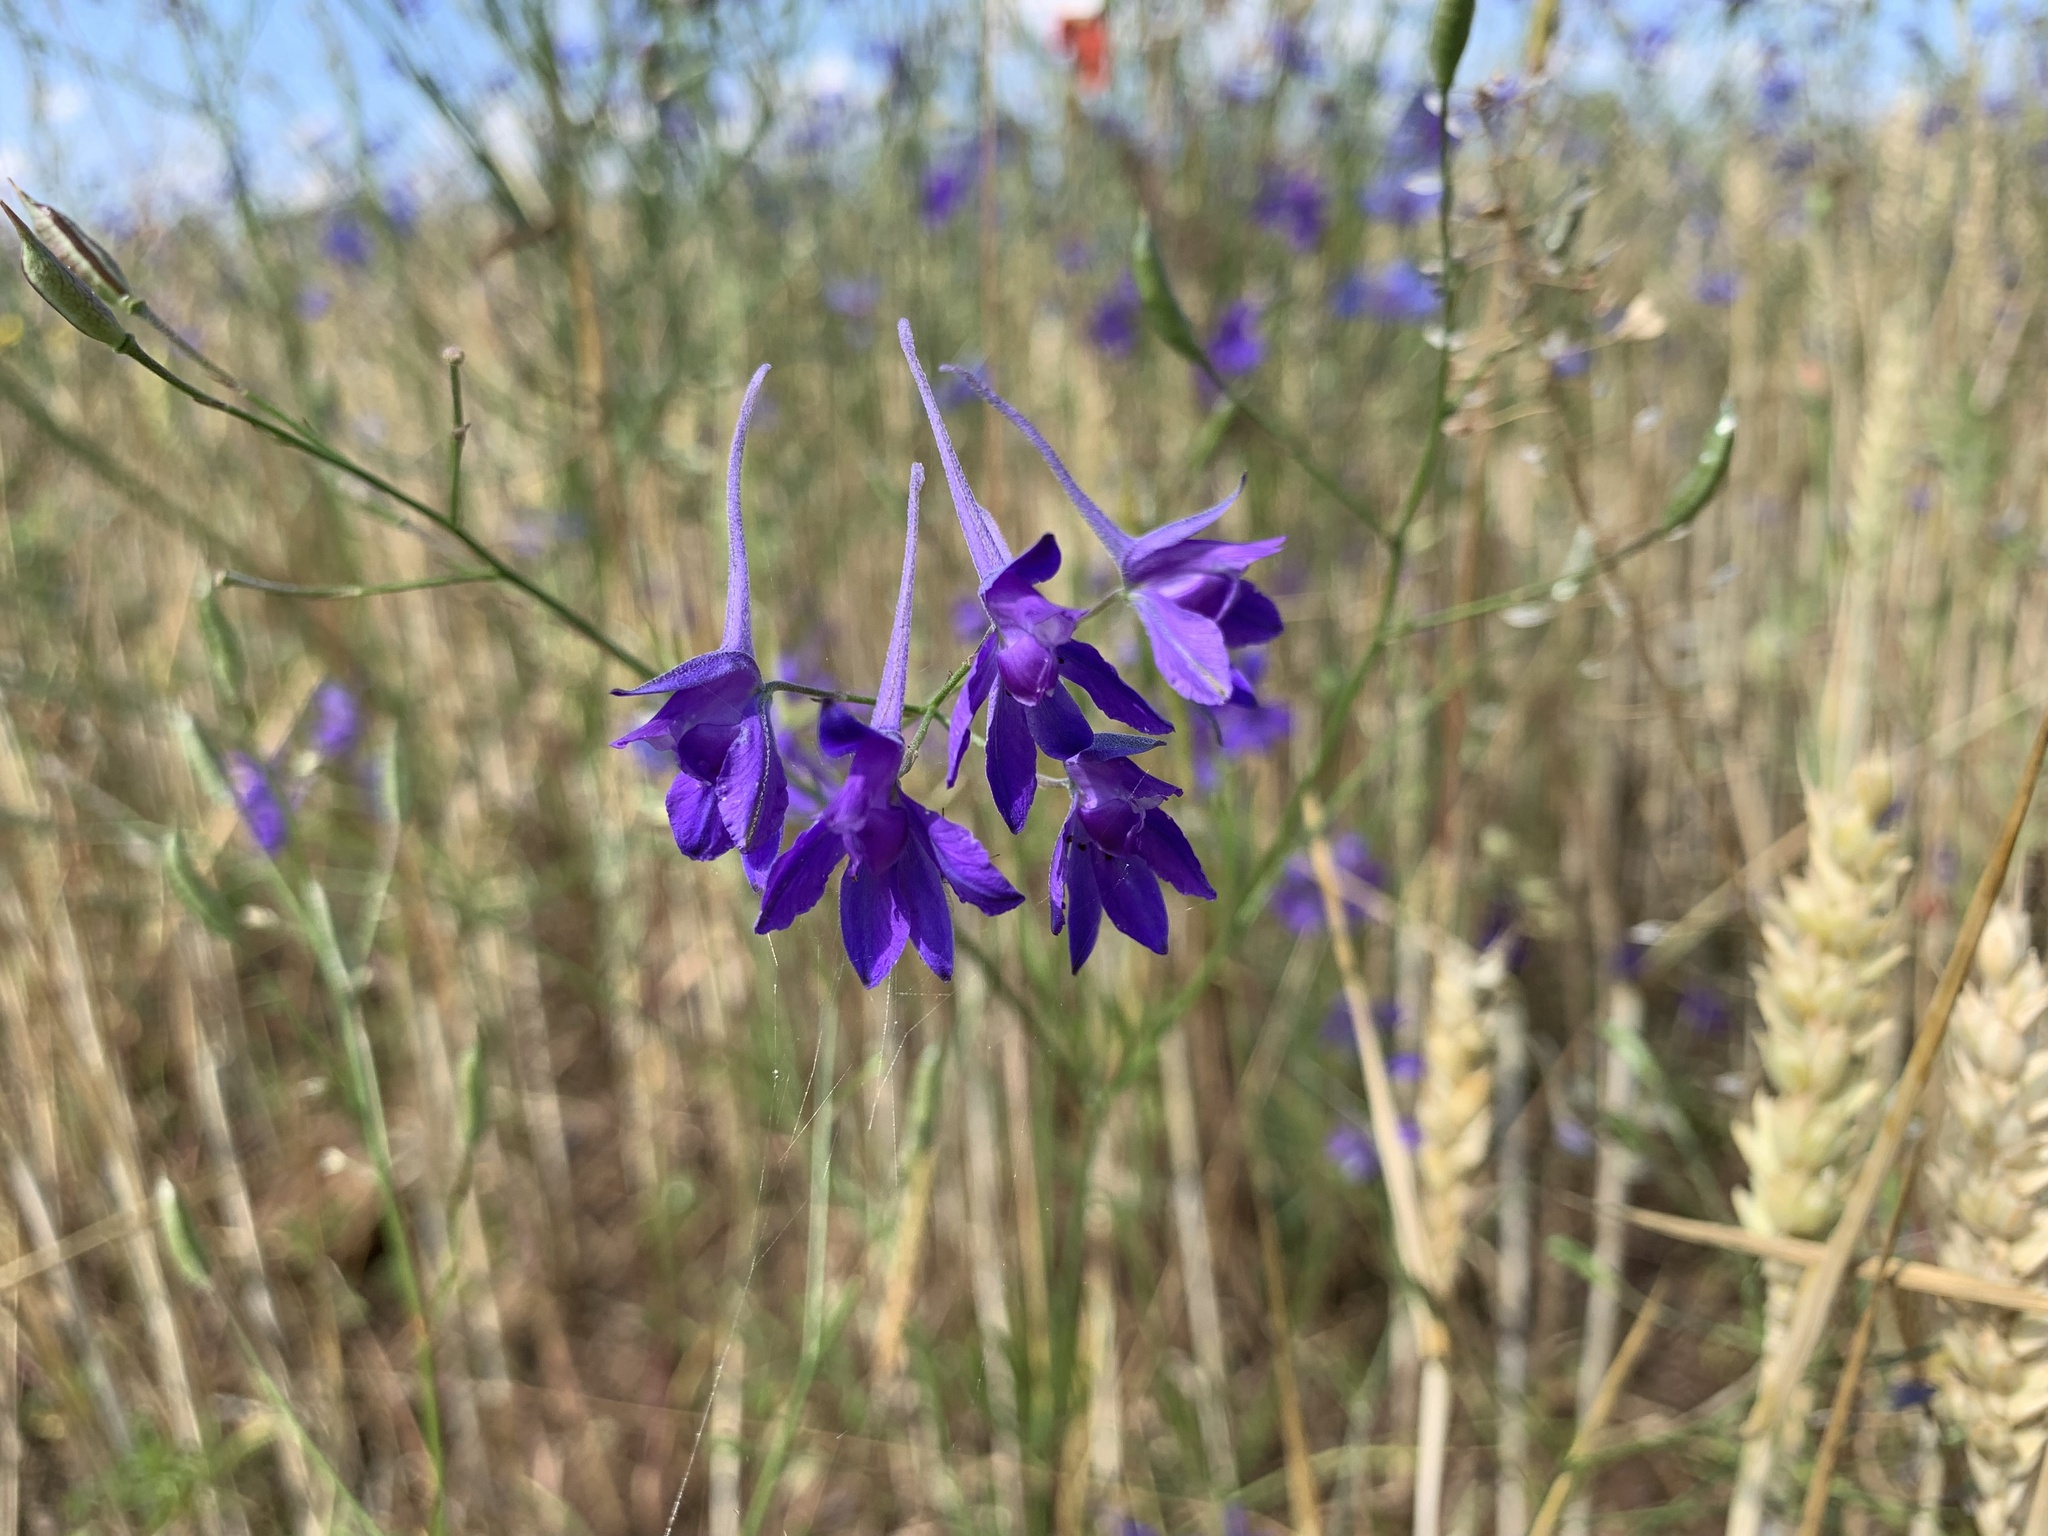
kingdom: Plantae
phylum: Tracheophyta
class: Magnoliopsida
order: Ranunculales
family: Ranunculaceae
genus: Delphinium
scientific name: Delphinium consolida
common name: Branching larkspur
